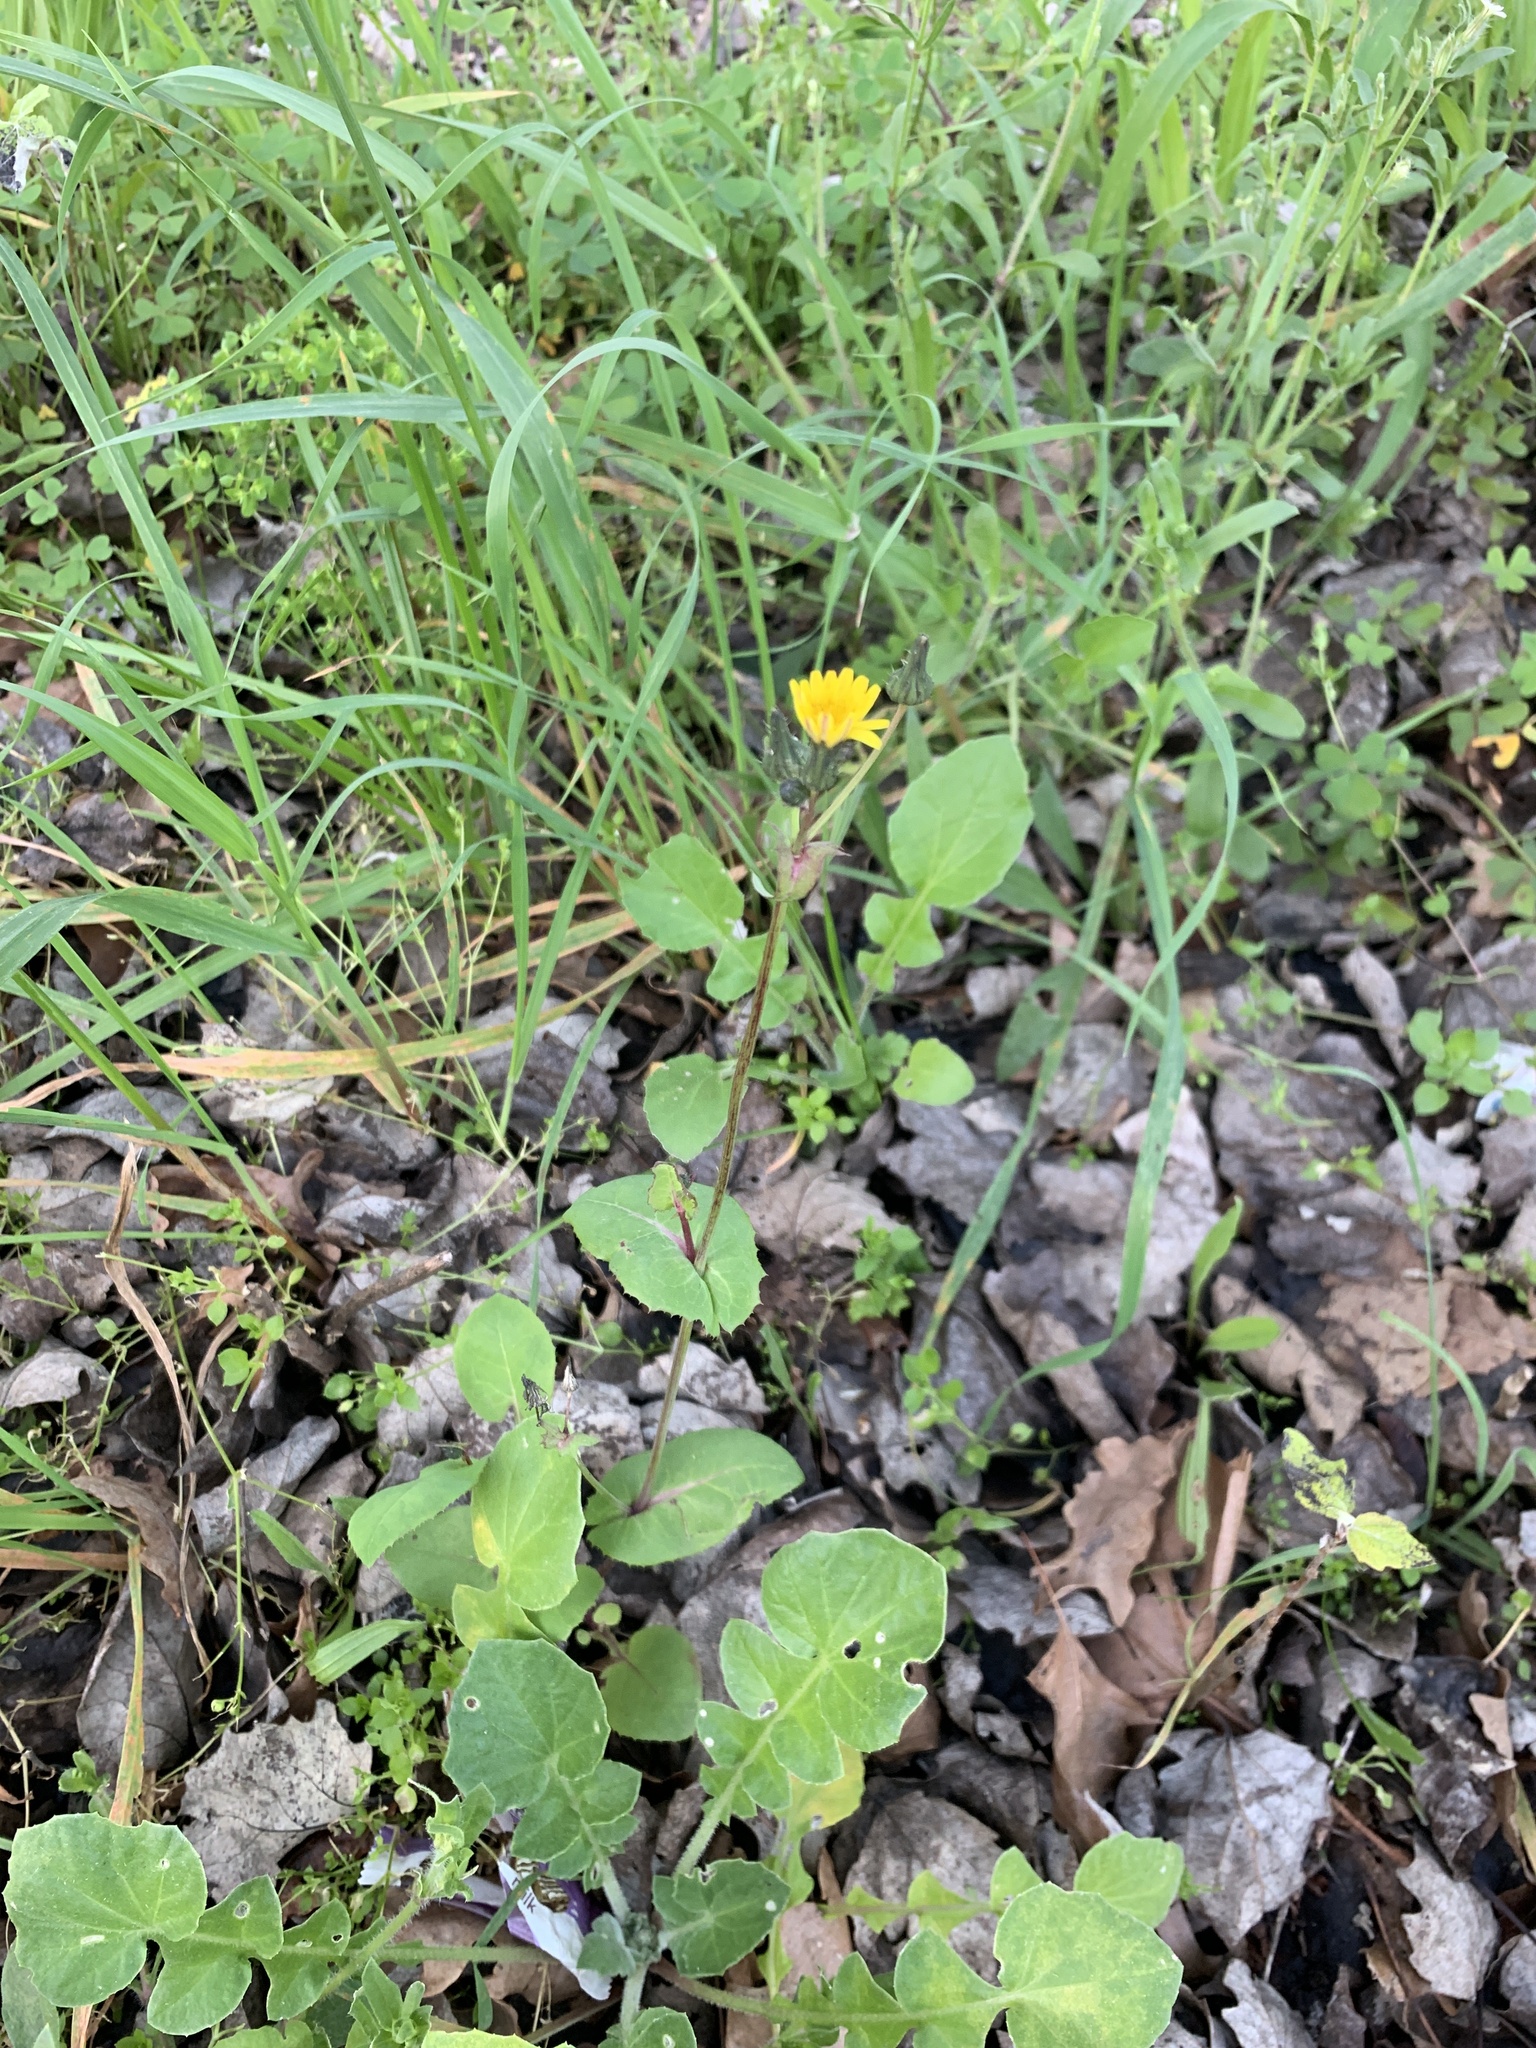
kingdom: Plantae
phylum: Tracheophyta
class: Magnoliopsida
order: Asterales
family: Asteraceae
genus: Sonchus
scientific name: Sonchus oleraceus
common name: Common sowthistle
